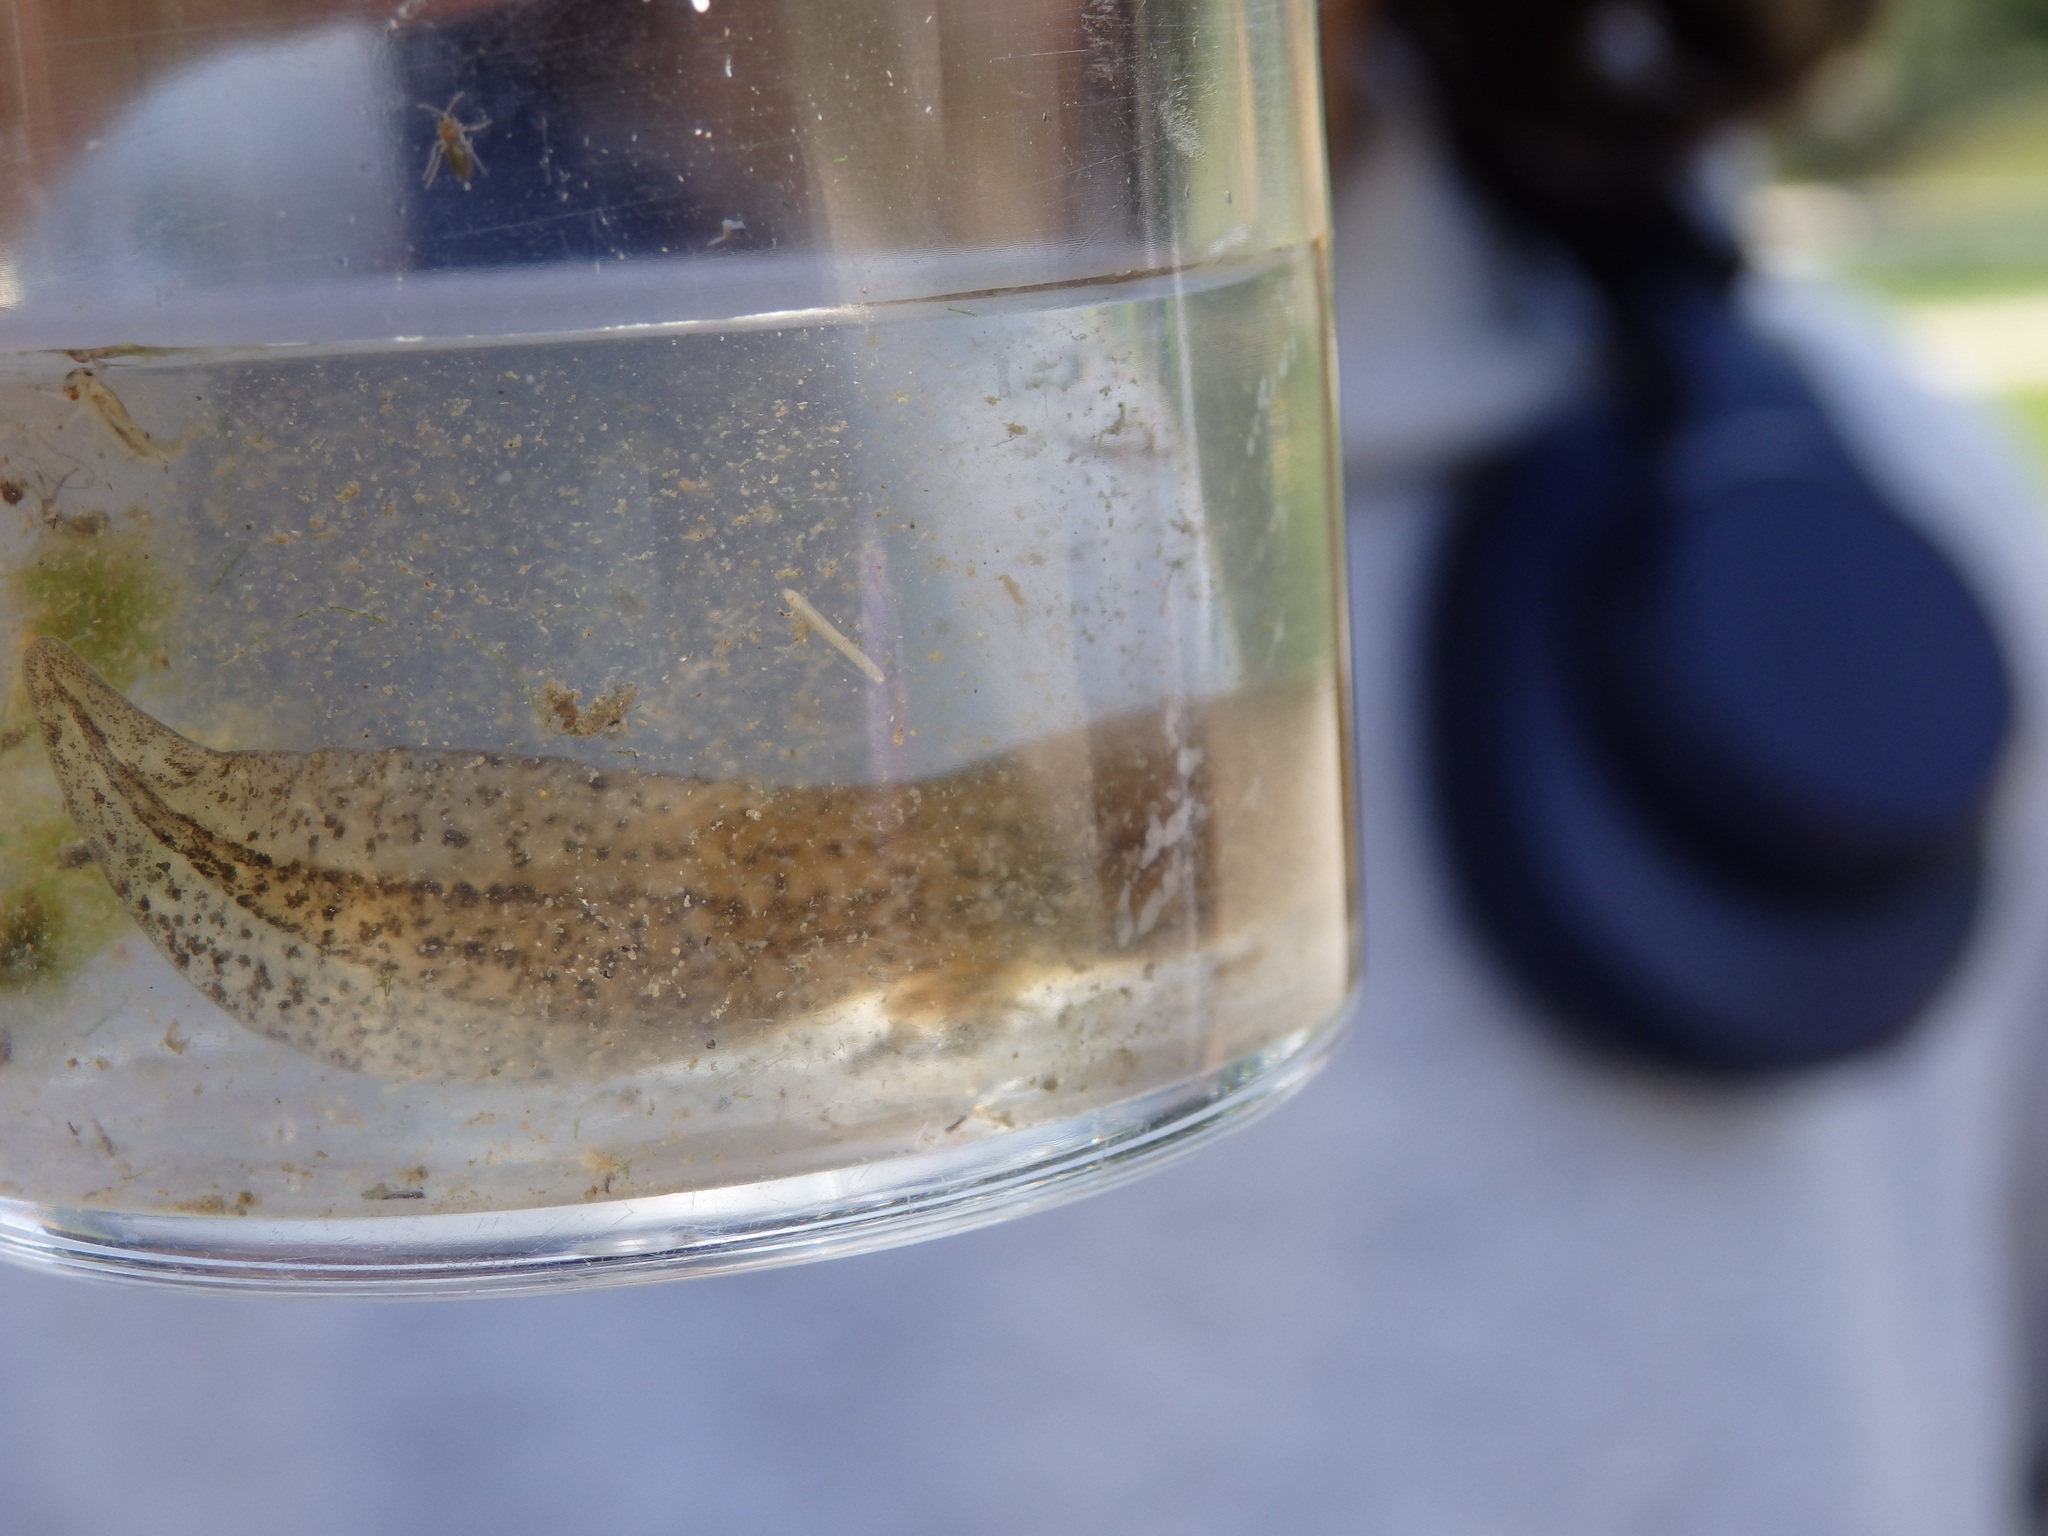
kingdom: Animalia
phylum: Chordata
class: Amphibia
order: Anura
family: Alytidae
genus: Alytes
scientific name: Alytes obstetricans
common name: Midwife toad
